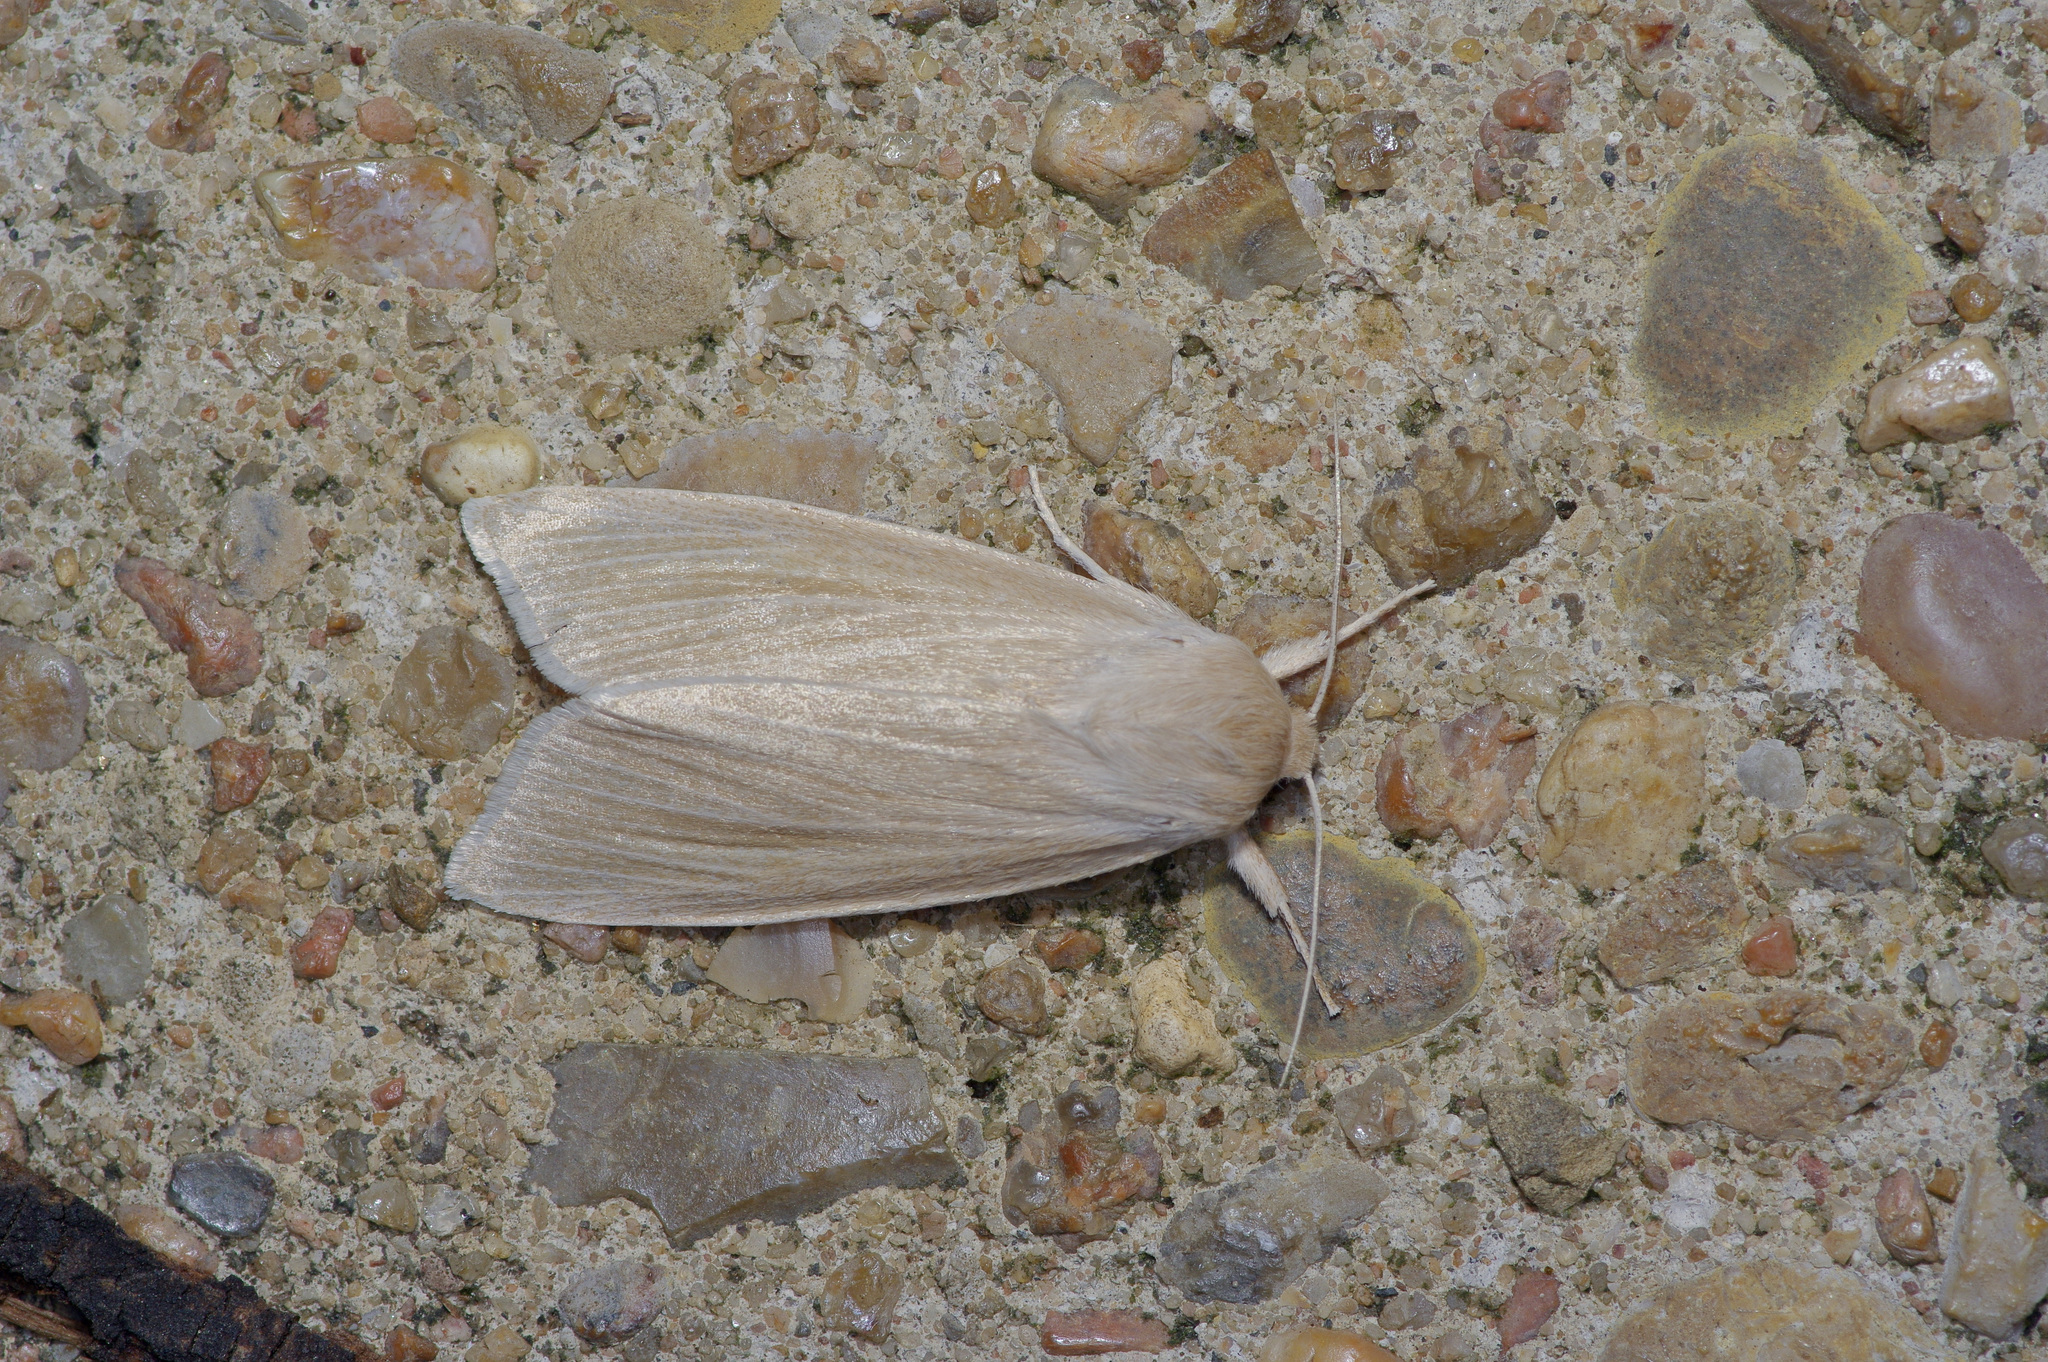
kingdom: Animalia
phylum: Arthropoda
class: Insecta
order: Lepidoptera
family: Noctuidae
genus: Acronicta
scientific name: Acronicta insularis
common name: Henry's marsh moth
